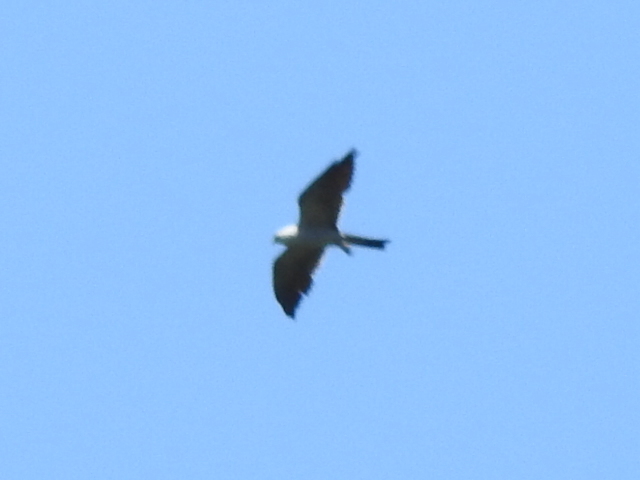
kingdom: Animalia
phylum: Chordata
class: Aves
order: Accipitriformes
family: Accipitridae
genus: Ictinia
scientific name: Ictinia mississippiensis
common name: Mississippi kite
